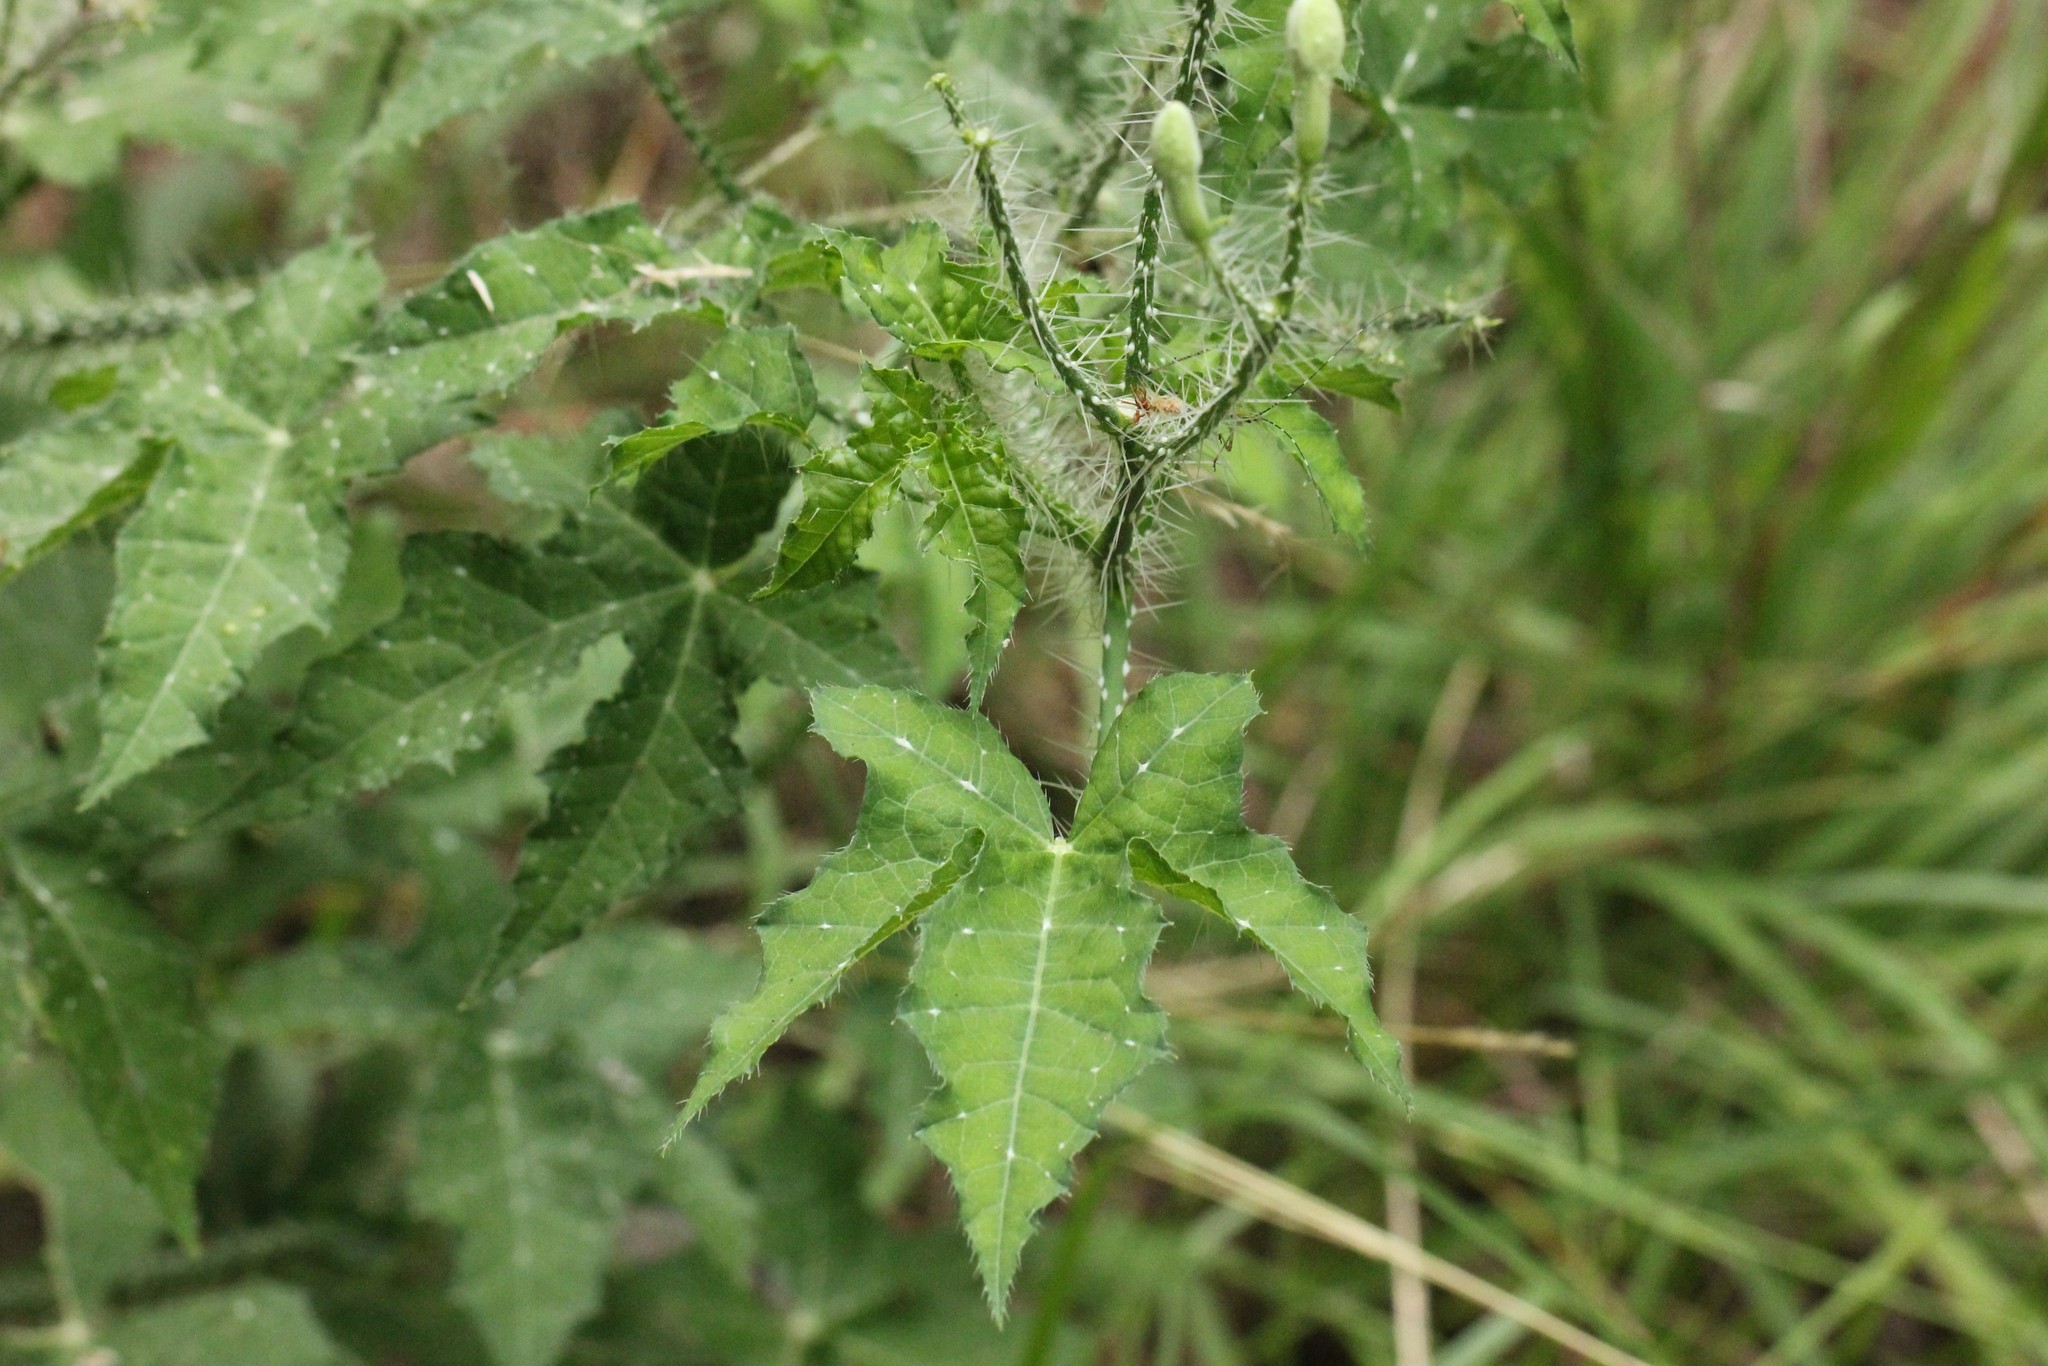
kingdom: Plantae
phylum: Tracheophyta
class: Magnoliopsida
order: Malpighiales
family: Euphorbiaceae
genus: Cnidoscolus
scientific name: Cnidoscolus texanus
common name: Texas bull-nettle
